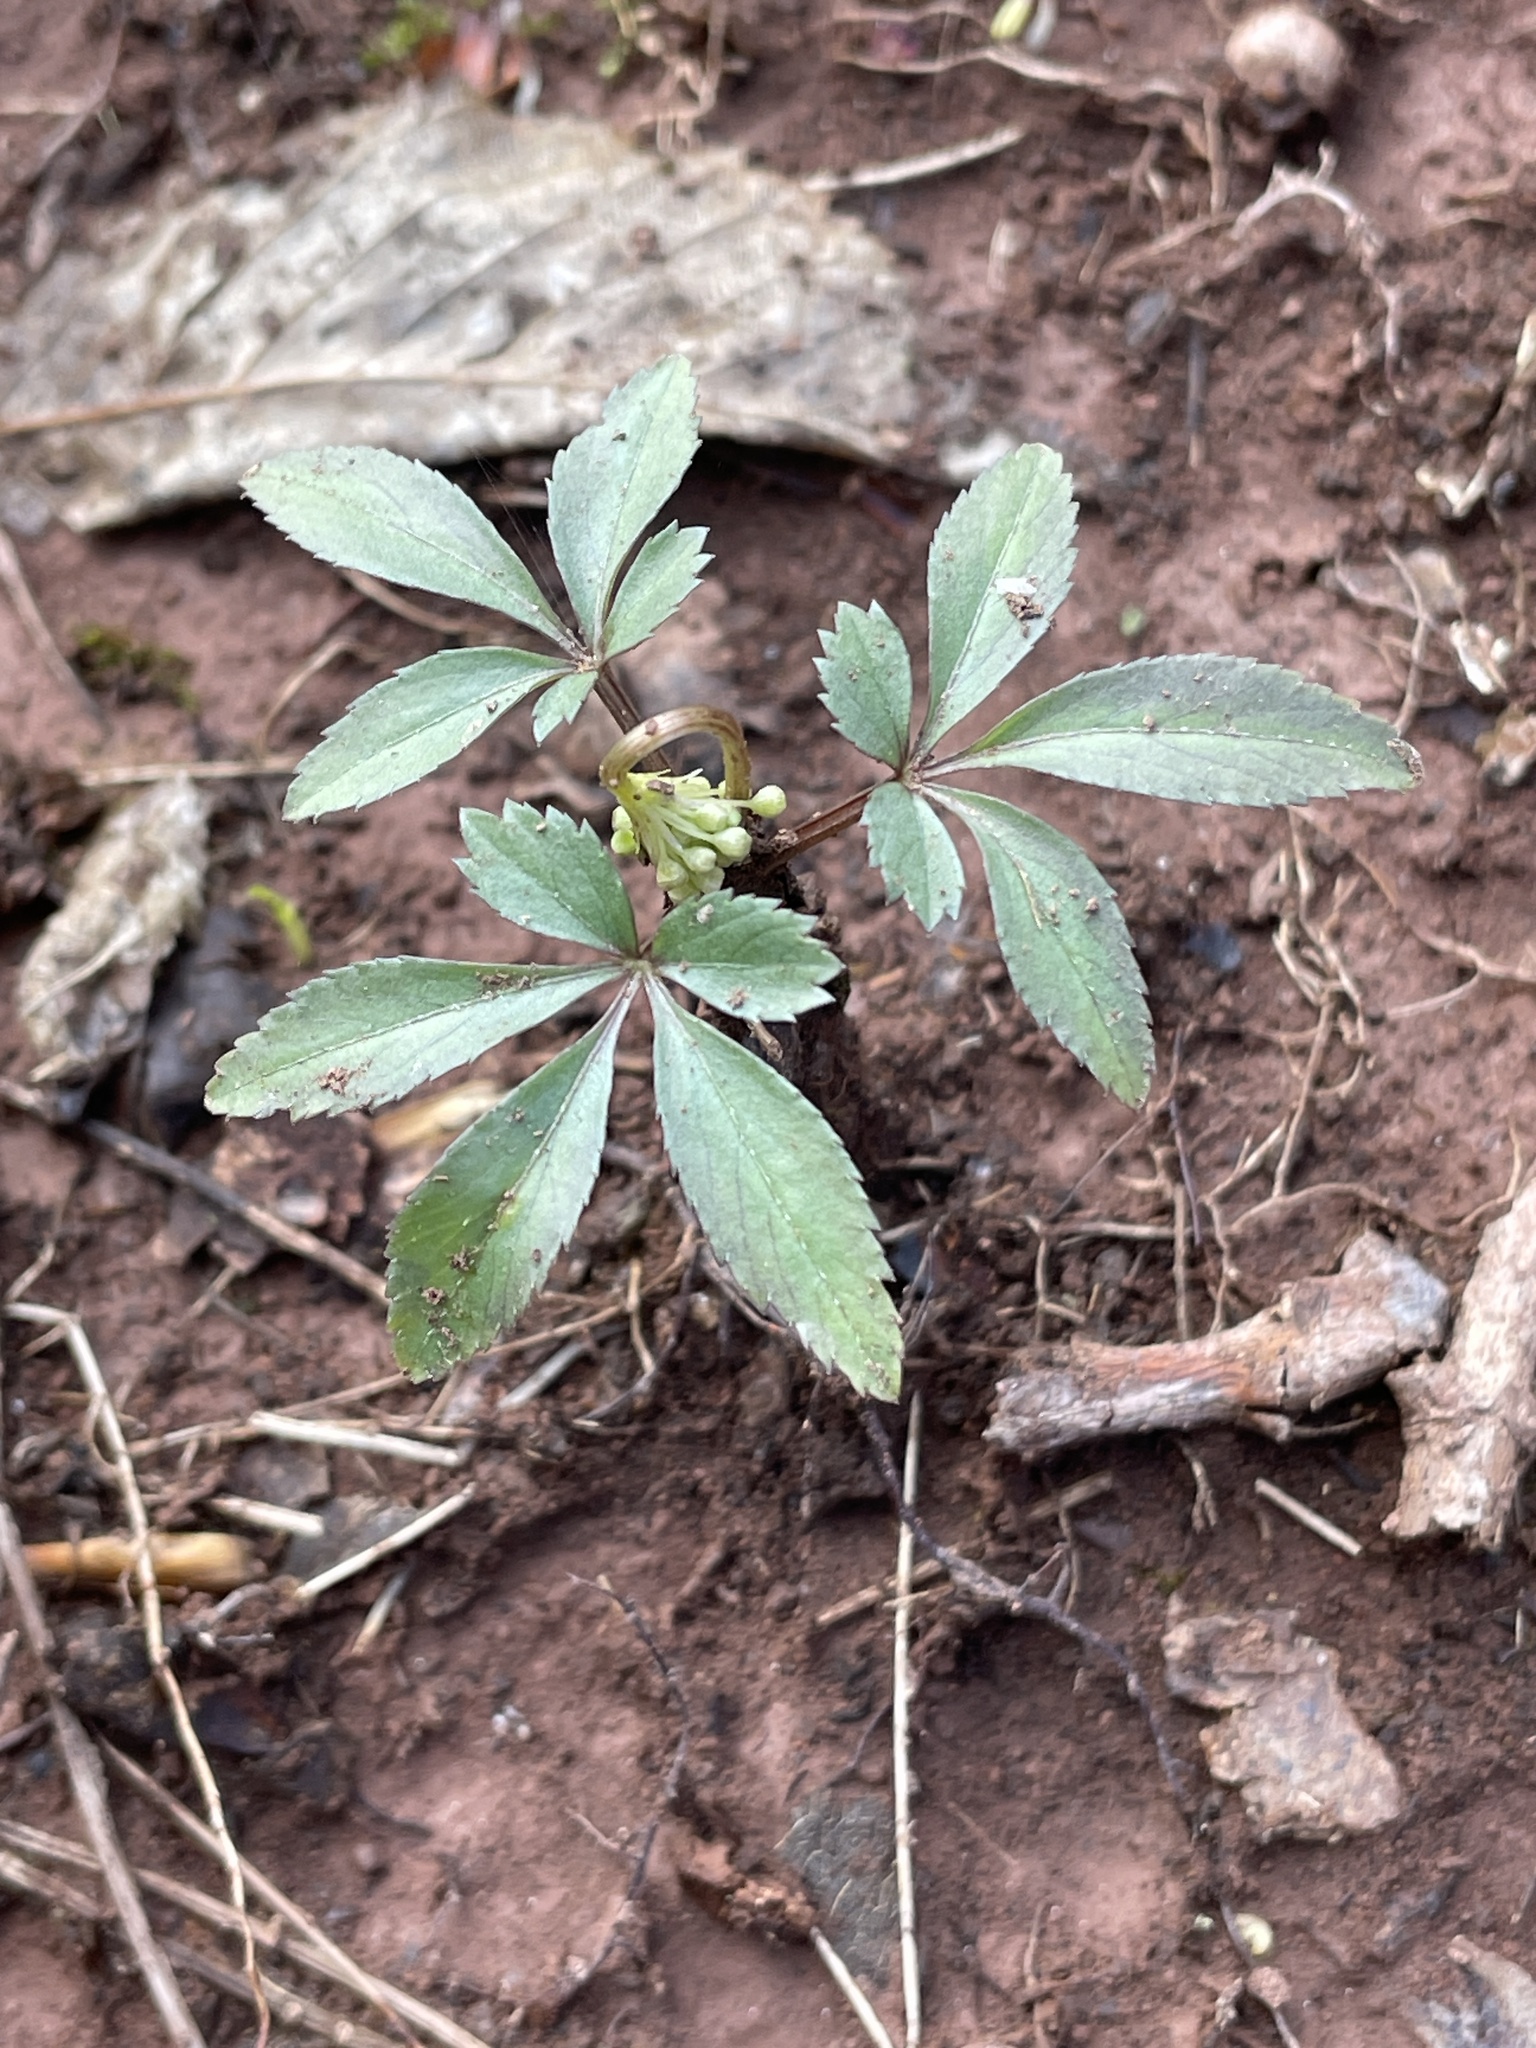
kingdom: Plantae
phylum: Tracheophyta
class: Magnoliopsida
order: Apiales
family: Araliaceae
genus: Panax
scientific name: Panax trifolius
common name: Dwarf ginseng
